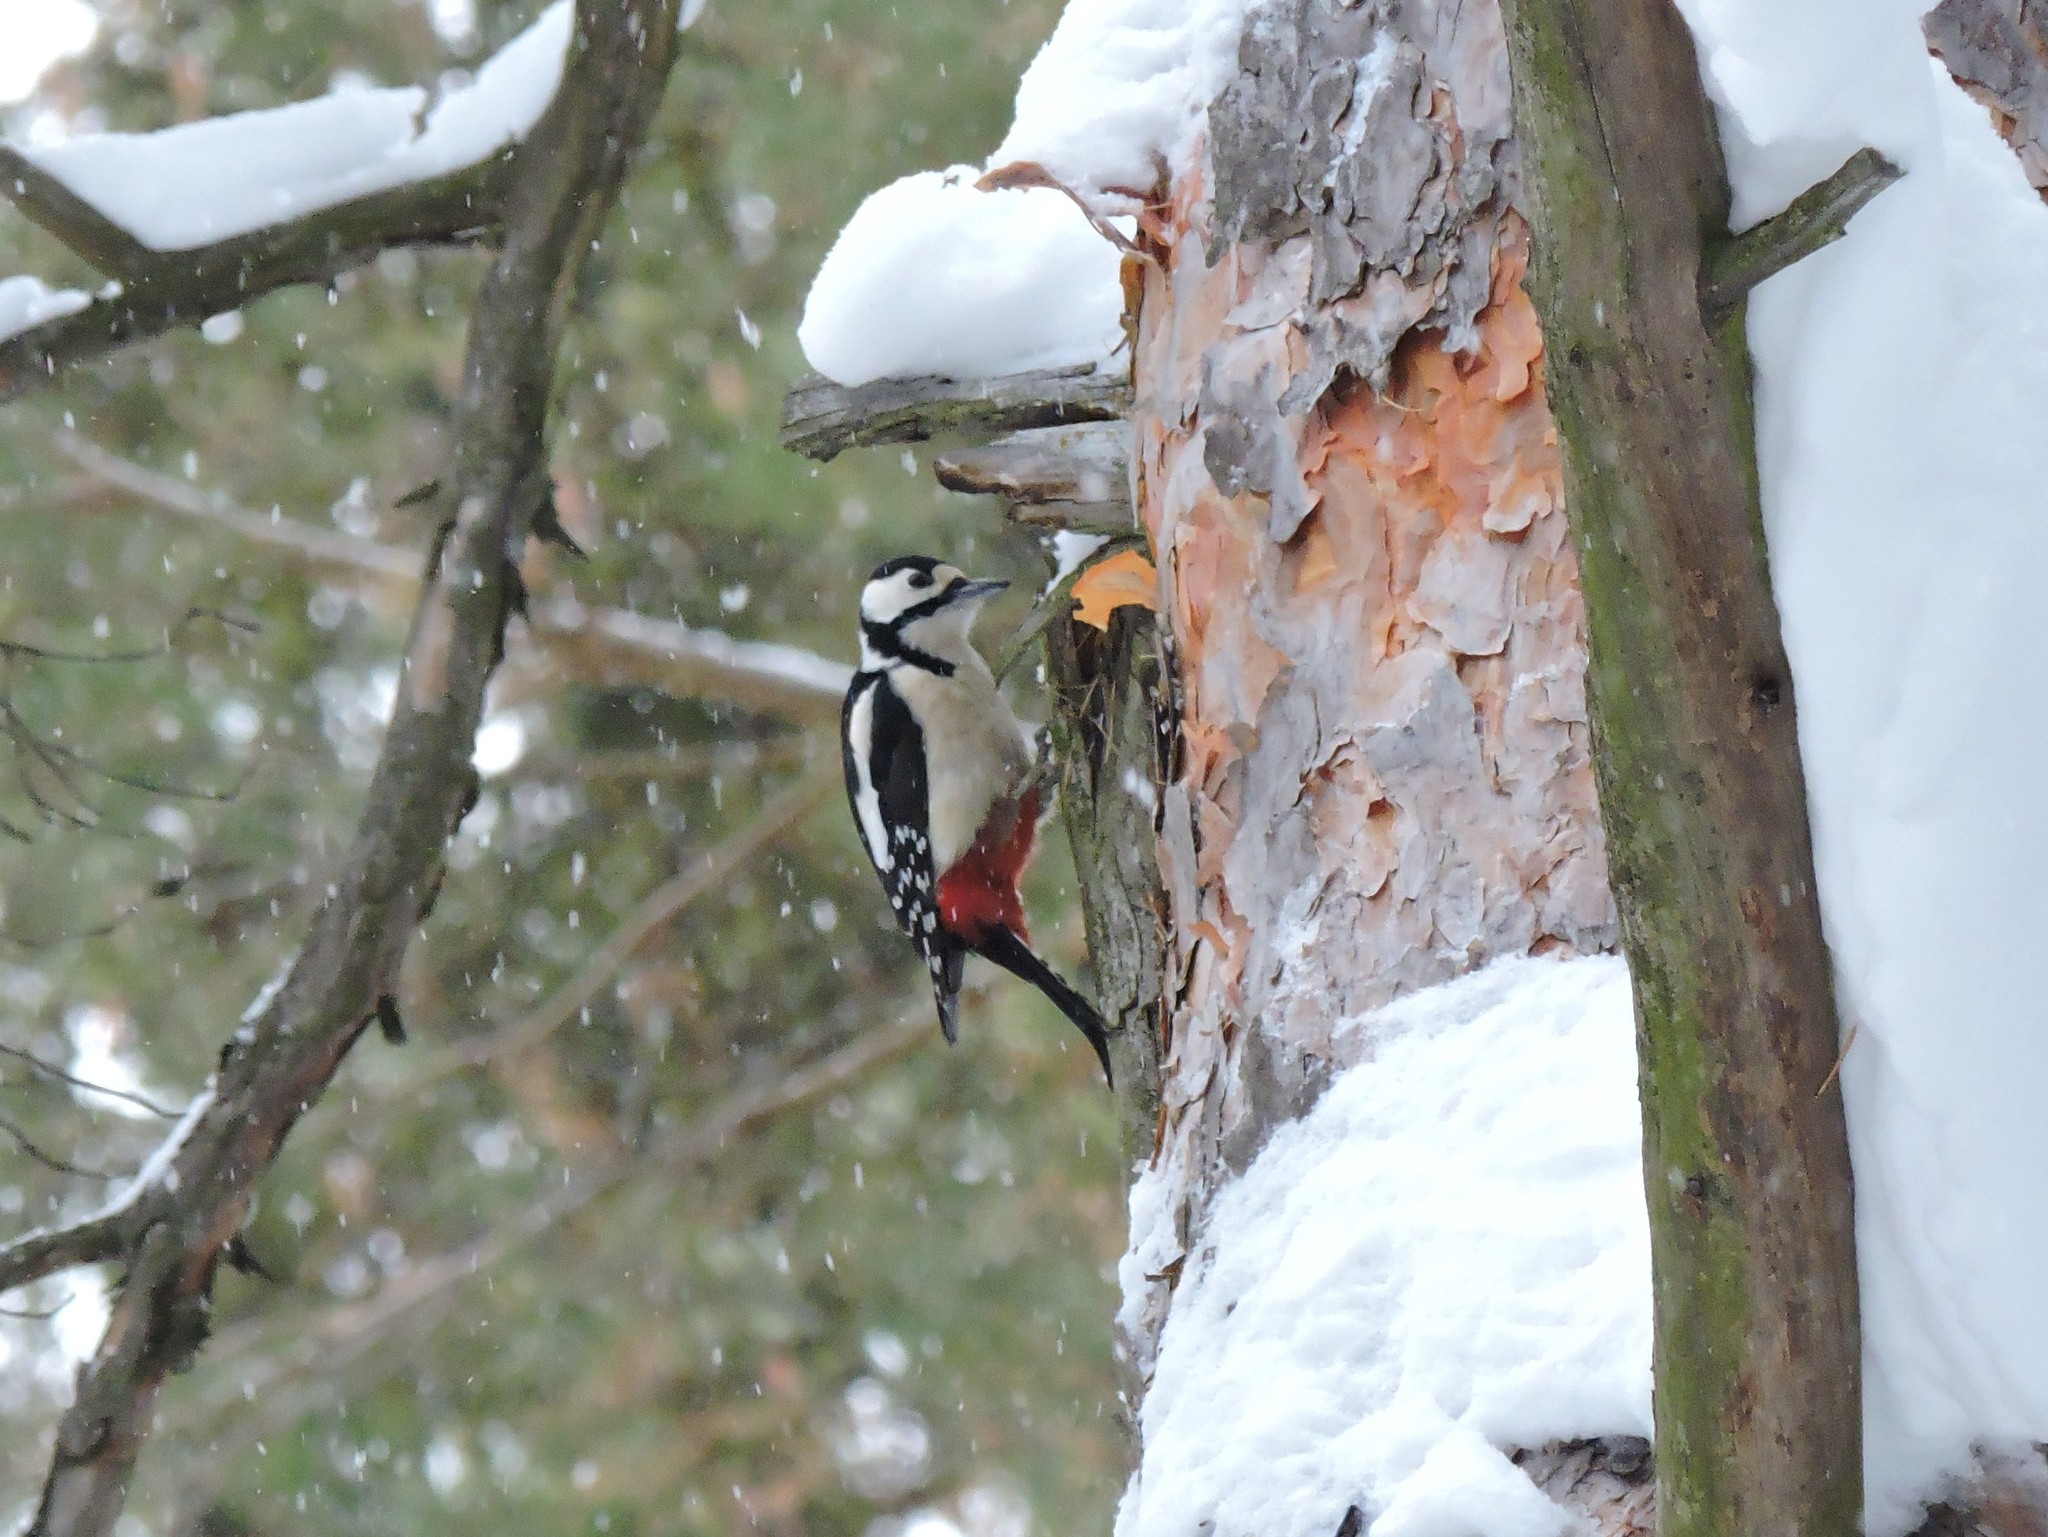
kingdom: Animalia
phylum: Chordata
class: Aves
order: Piciformes
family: Picidae
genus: Dendrocopos
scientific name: Dendrocopos major
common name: Great spotted woodpecker
